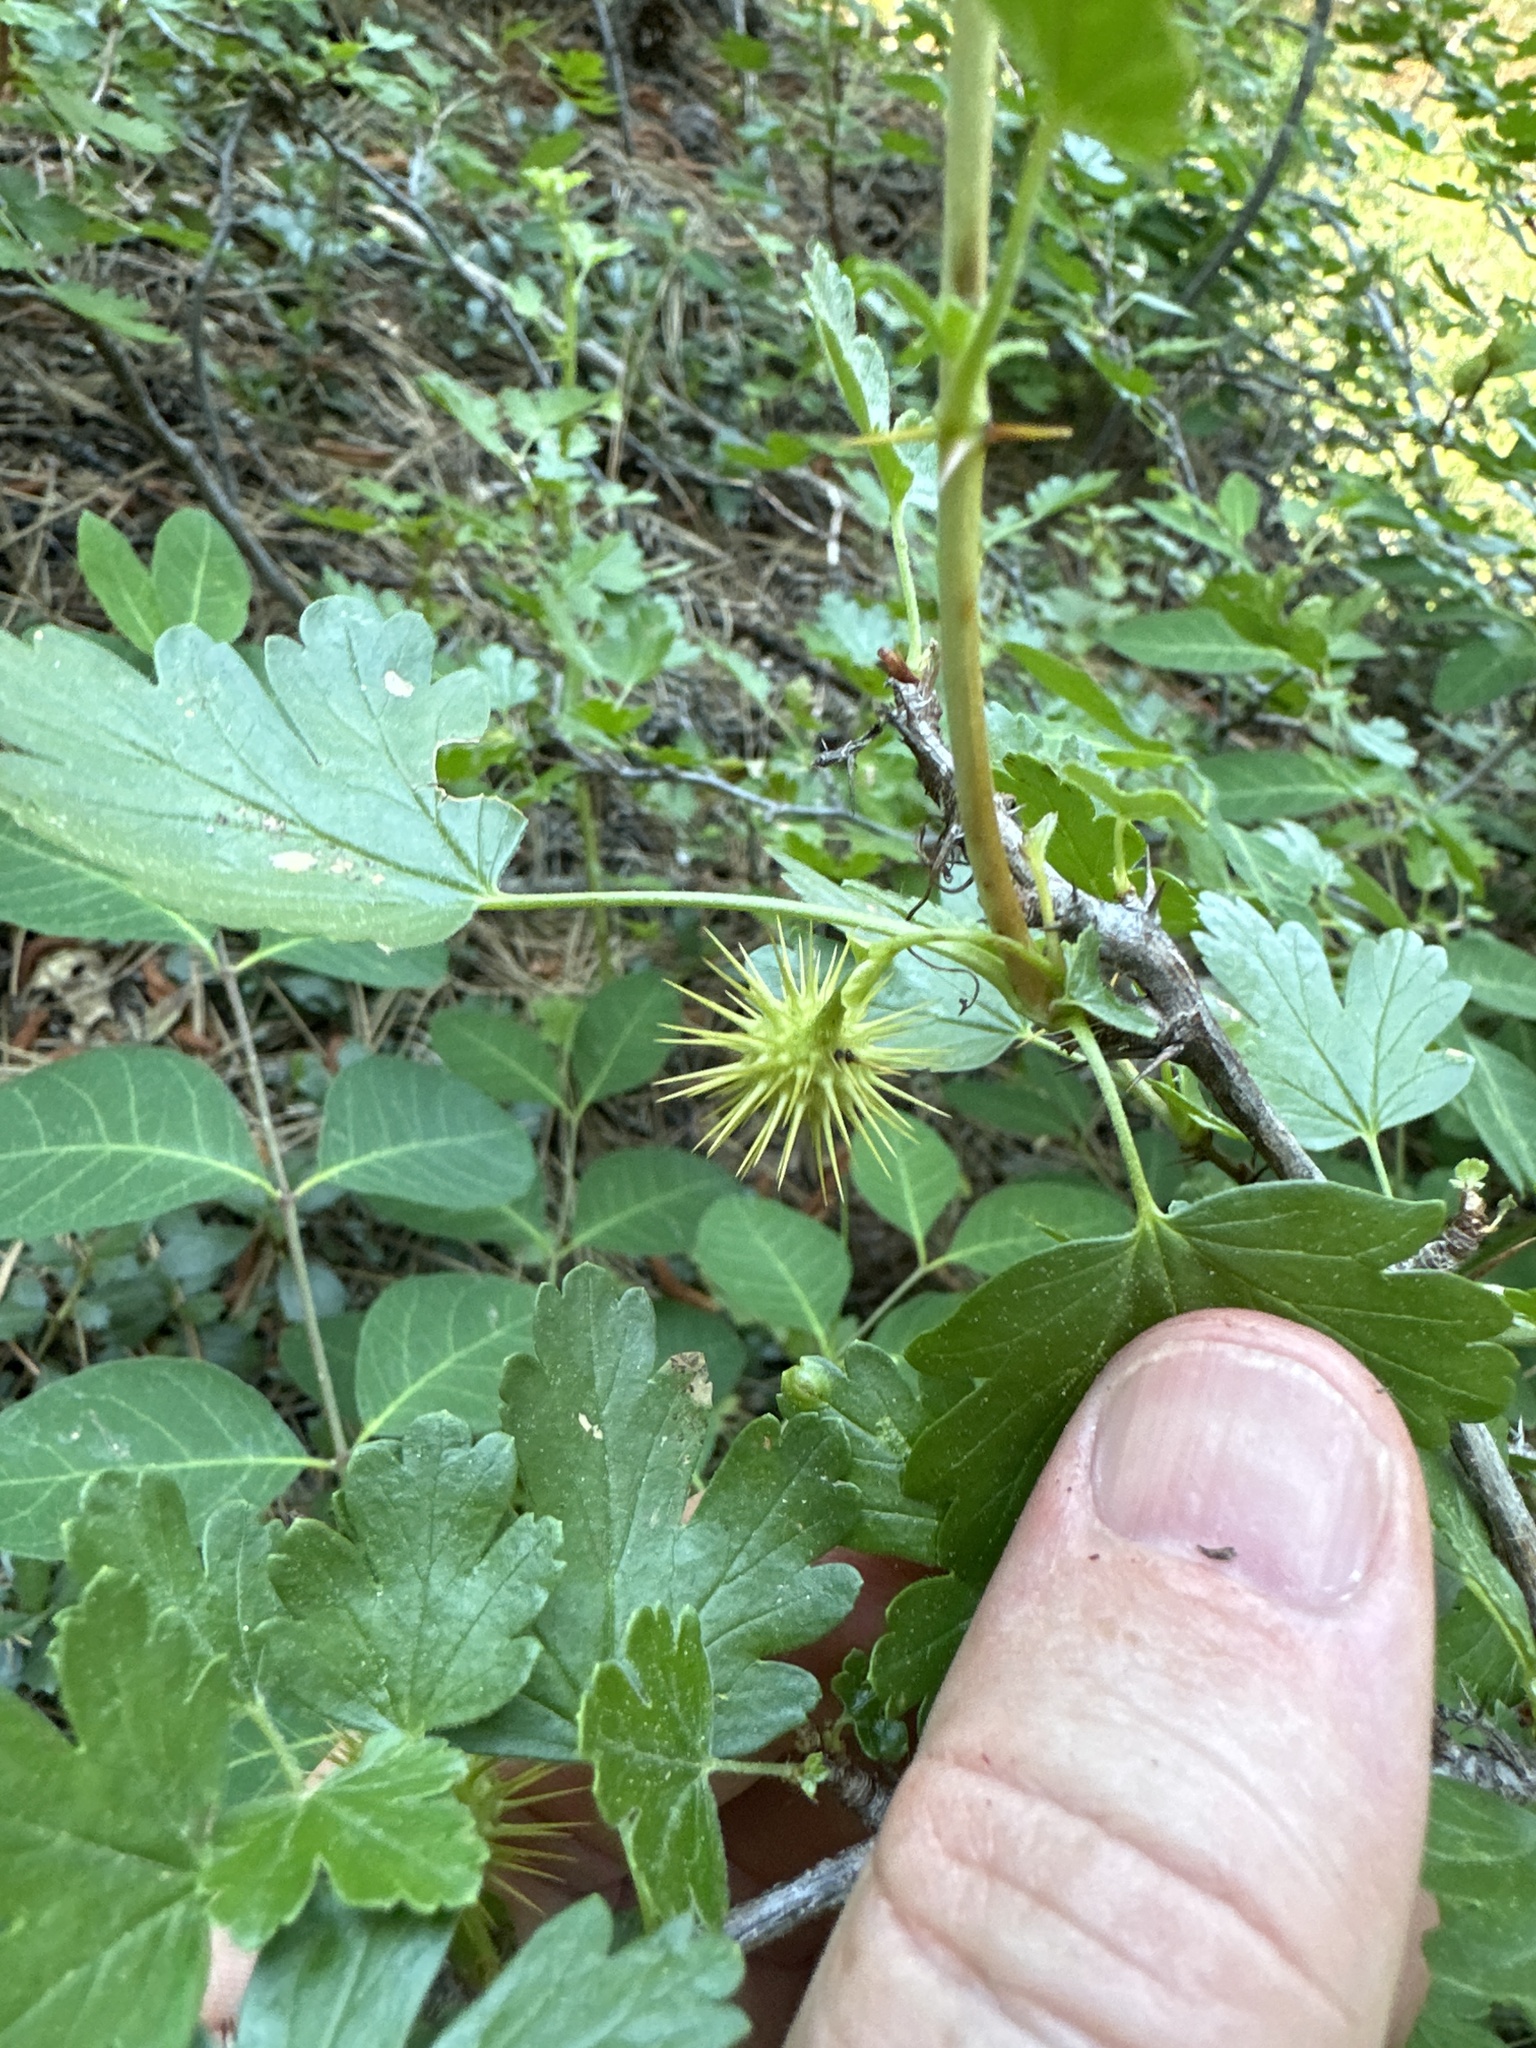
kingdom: Plantae
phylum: Tracheophyta
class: Magnoliopsida
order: Saxifragales
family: Grossulariaceae
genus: Ribes
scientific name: Ribes roezlii
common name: Sierra gooseberry
